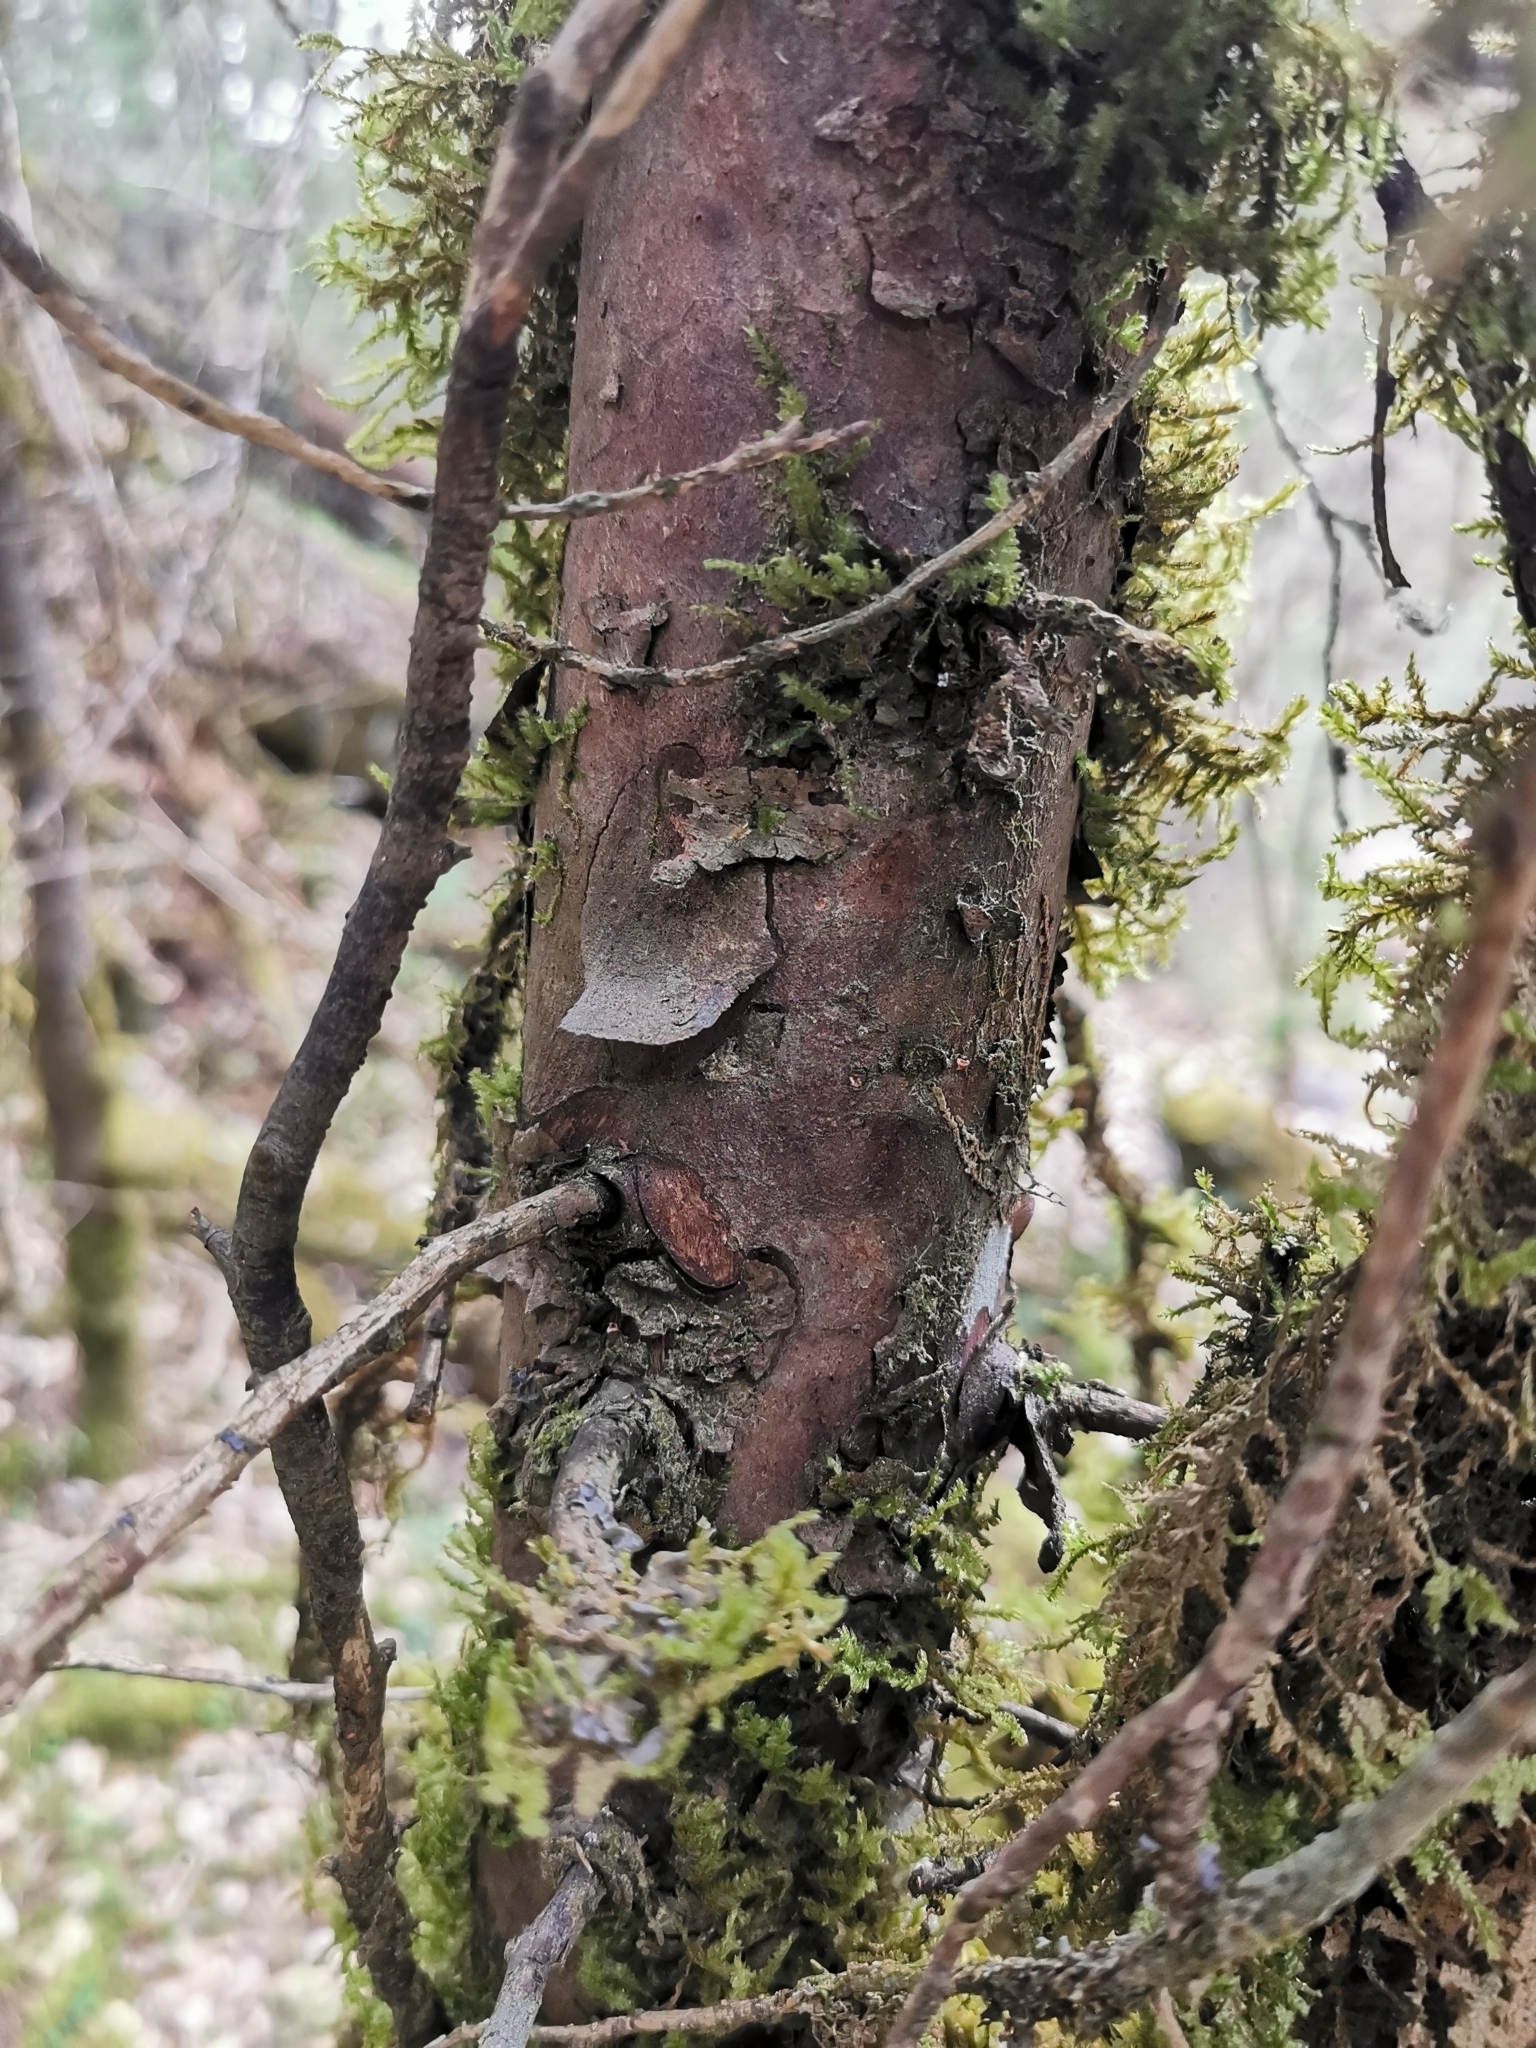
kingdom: Plantae
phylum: Tracheophyta
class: Pinopsida
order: Pinales
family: Cupressaceae
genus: Cupressus
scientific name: Cupressus lusitanica
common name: Mexican cypress
